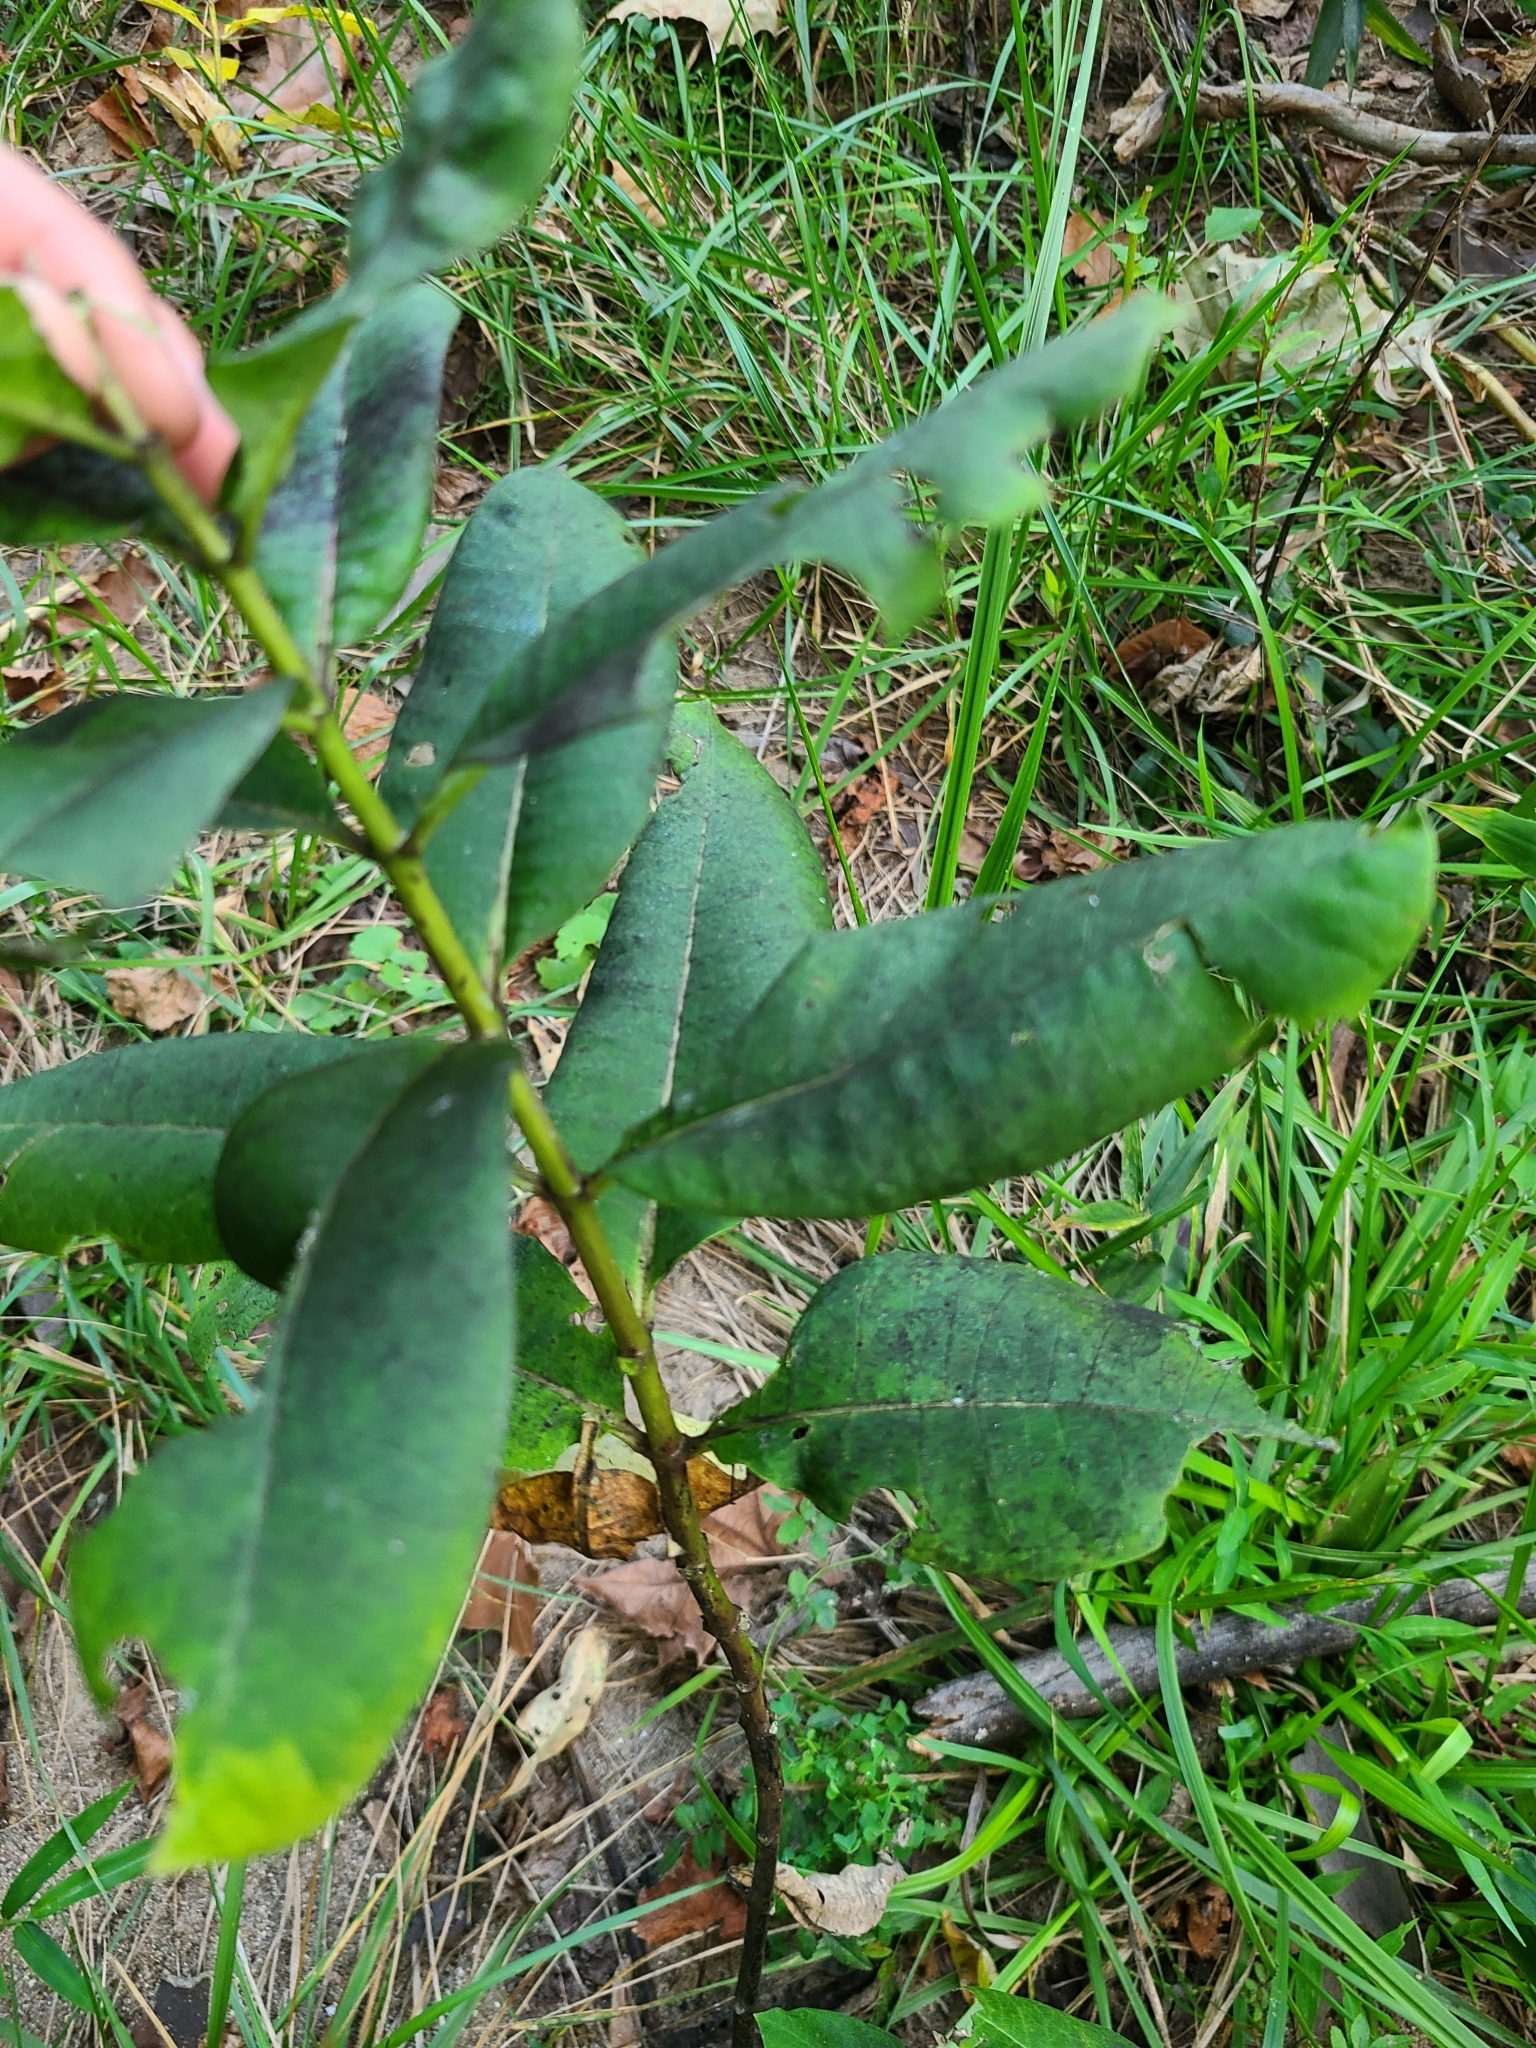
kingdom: Animalia
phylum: Arthropoda
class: Insecta
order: Lepidoptera
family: Nymphalidae
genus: Danaus
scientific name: Danaus plexippus
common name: Monarch
